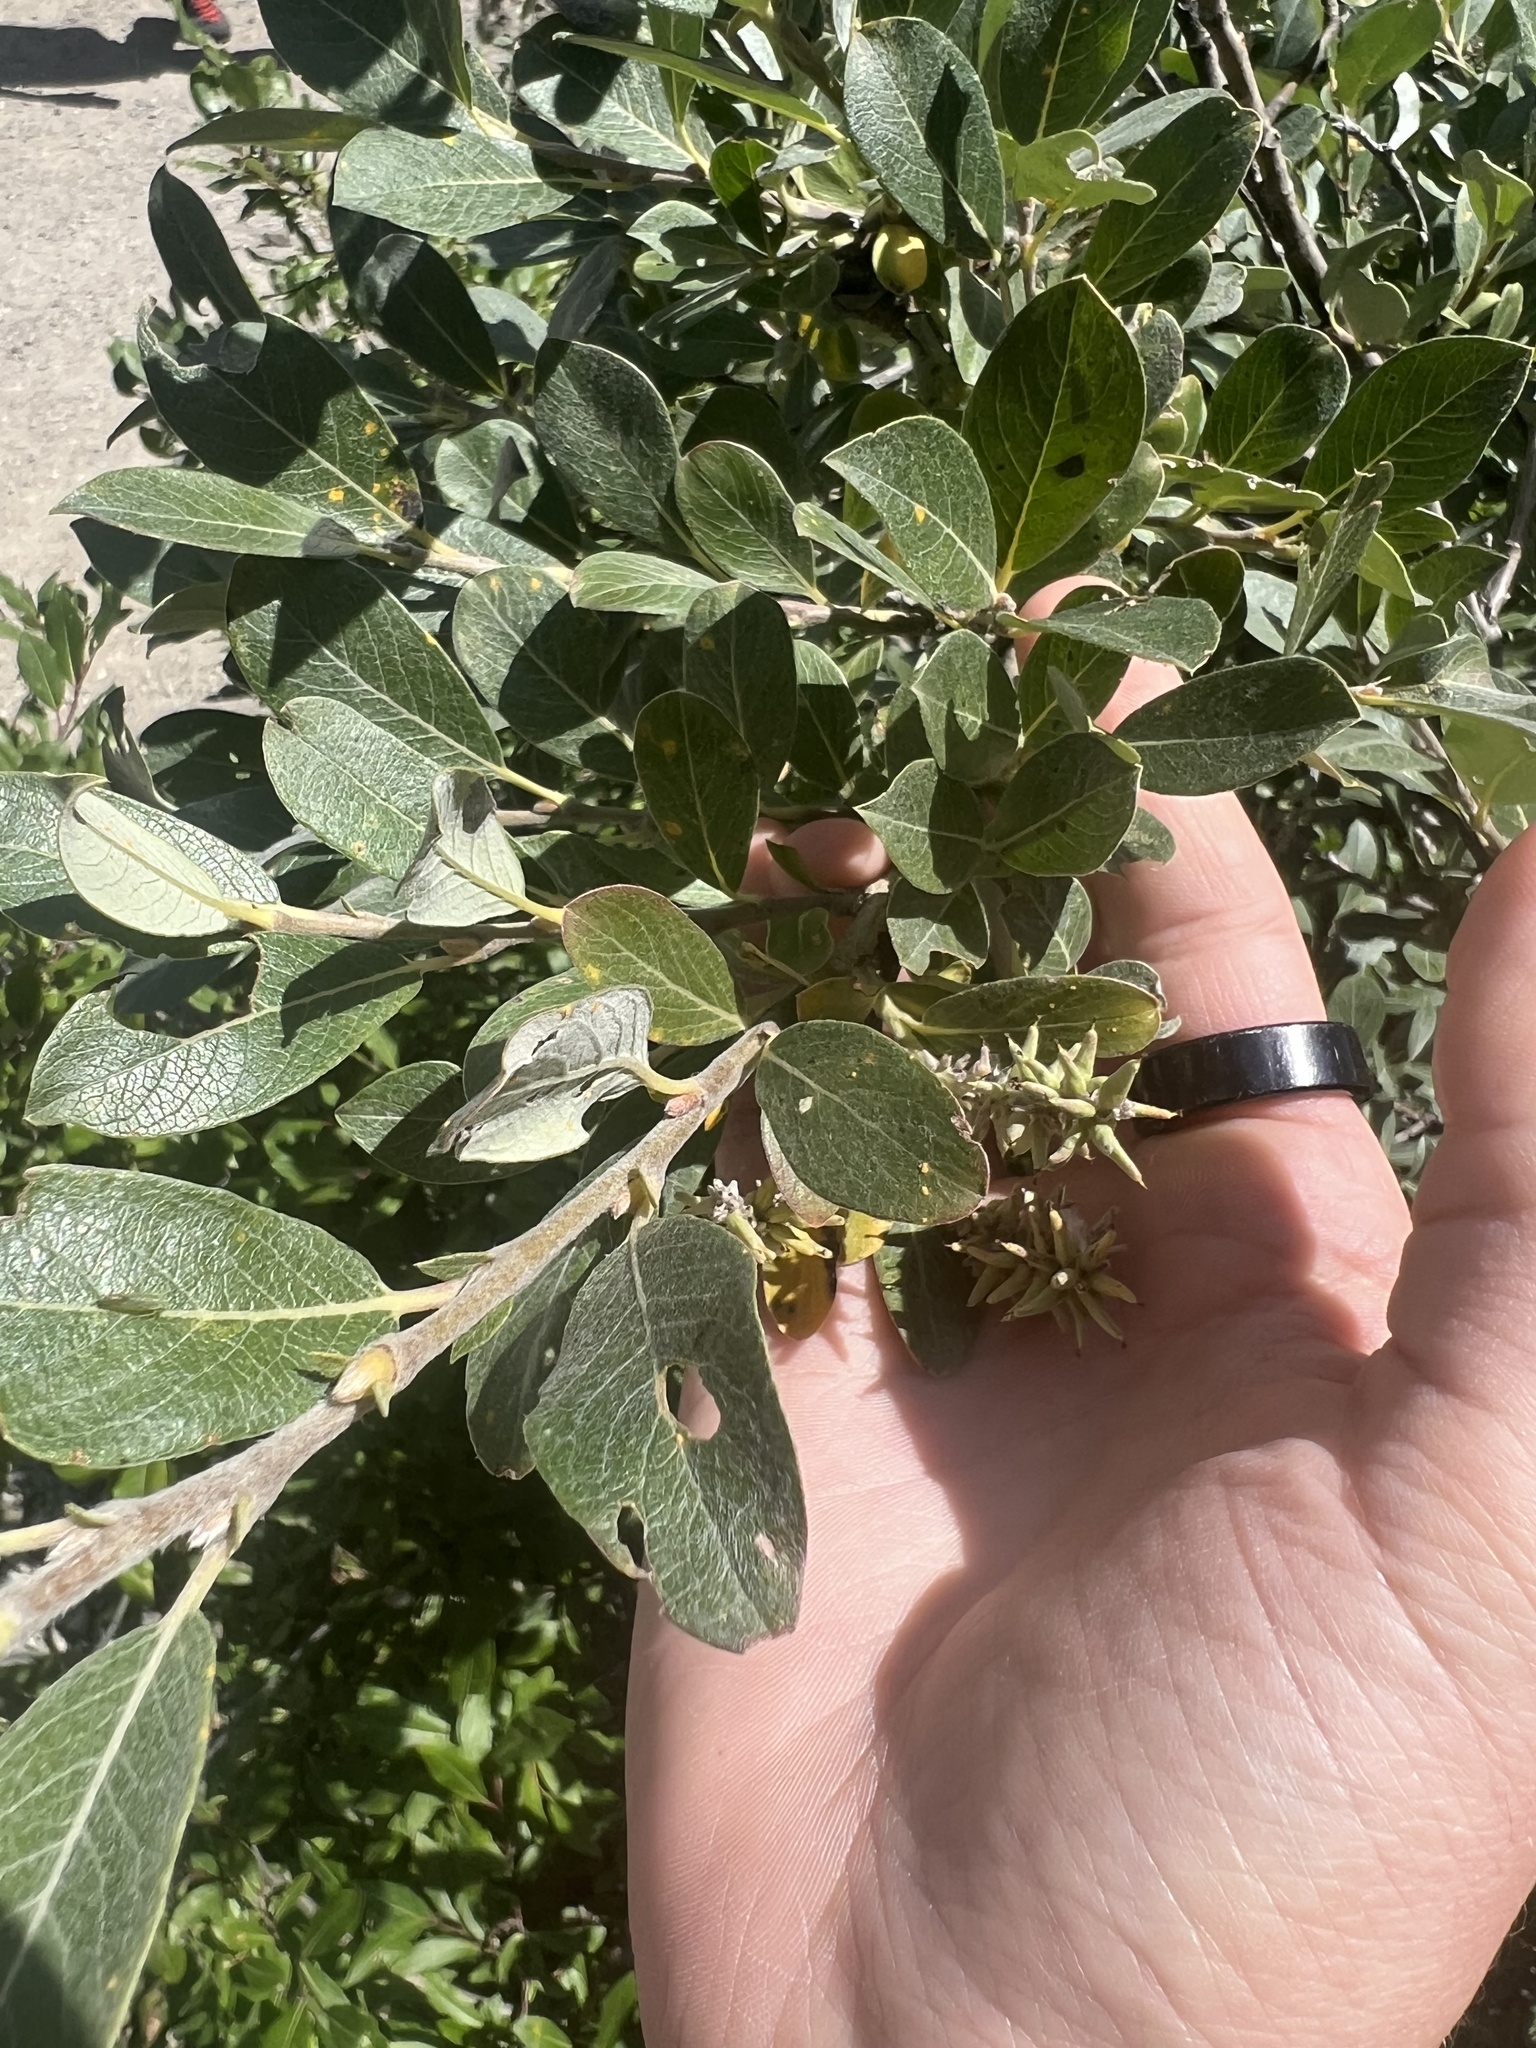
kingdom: Plantae
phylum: Tracheophyta
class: Magnoliopsida
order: Malpighiales
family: Salicaceae
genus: Salix
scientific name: Salix glauca
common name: Glaucous willow
